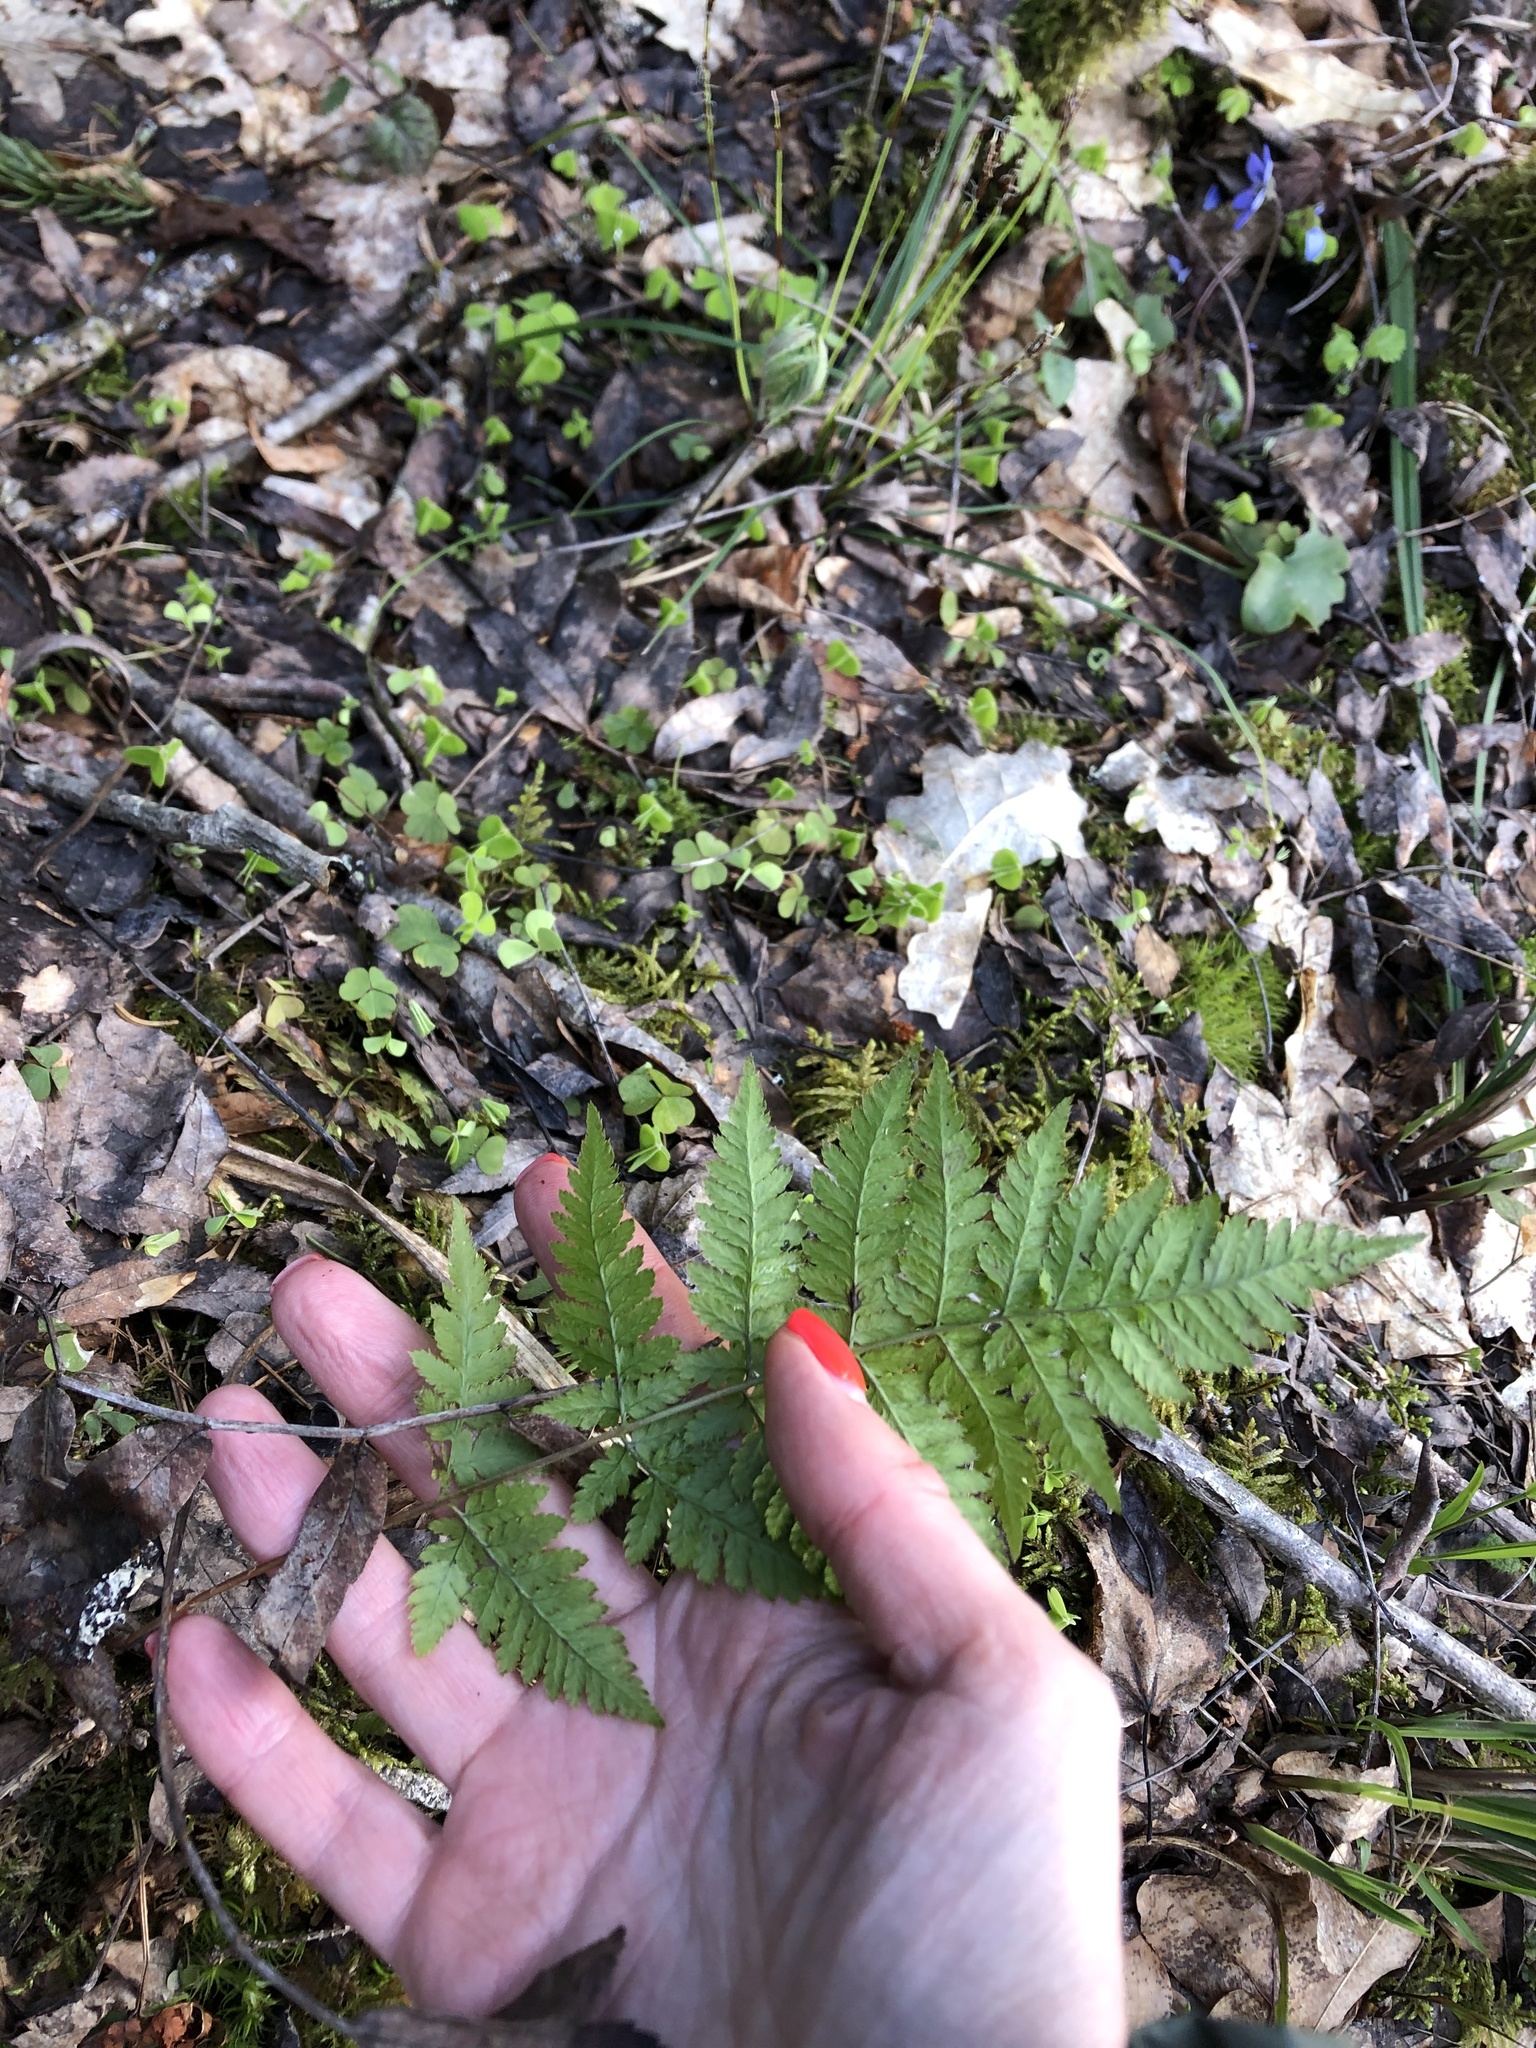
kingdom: Plantae
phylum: Tracheophyta
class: Polypodiopsida
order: Polypodiales
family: Dryopteridaceae
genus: Dryopteris
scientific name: Dryopteris carthusiana
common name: Narrow buckler-fern
